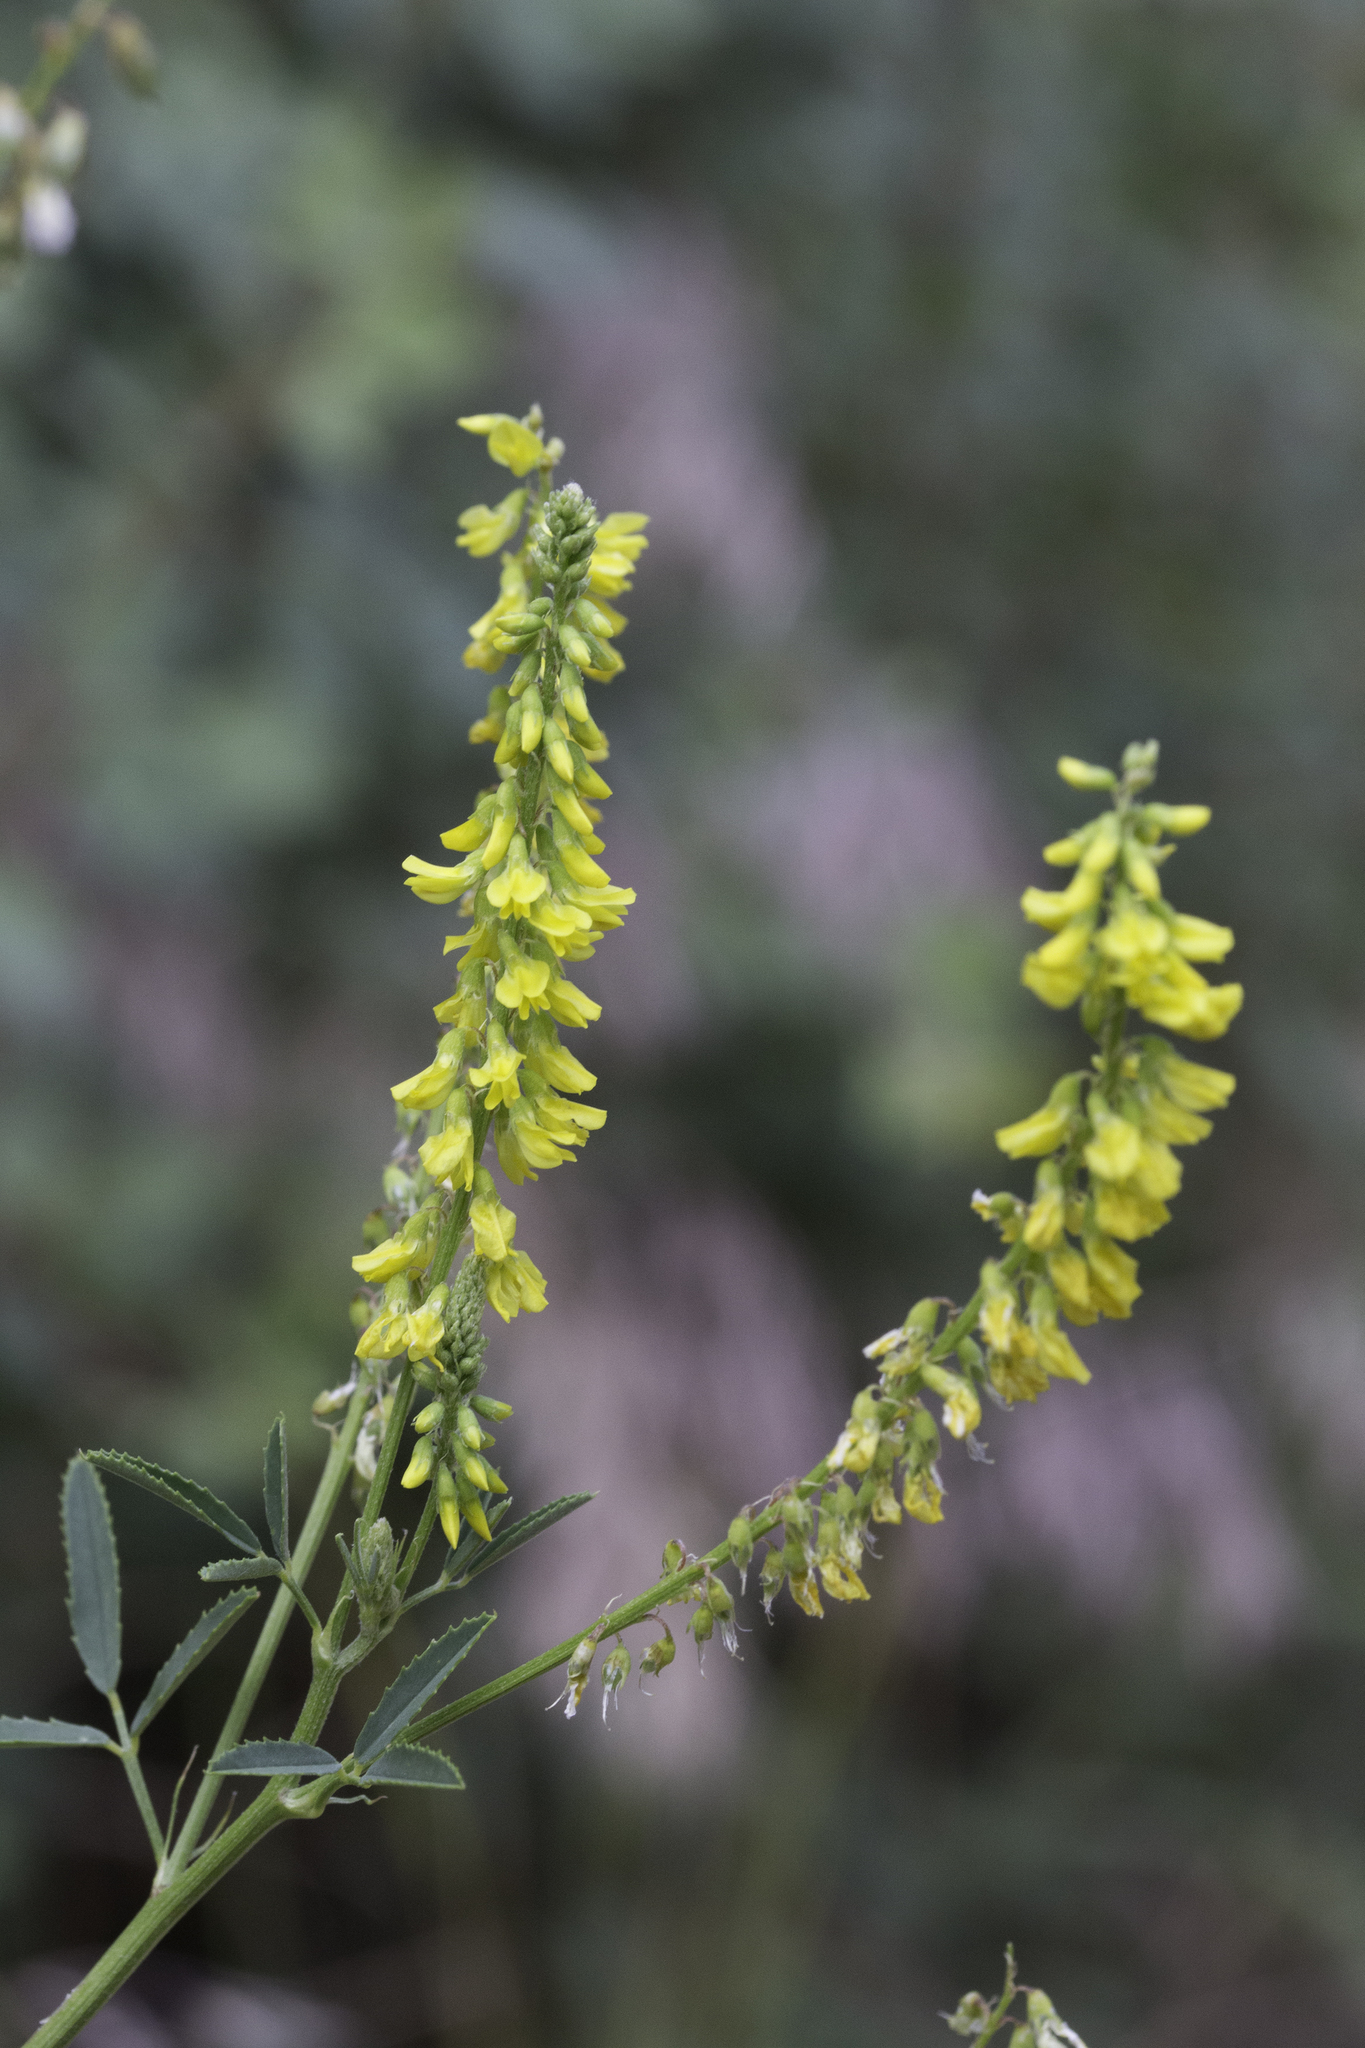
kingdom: Plantae
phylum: Tracheophyta
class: Magnoliopsida
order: Fabales
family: Fabaceae
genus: Melilotus
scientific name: Melilotus officinalis
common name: Sweetclover
